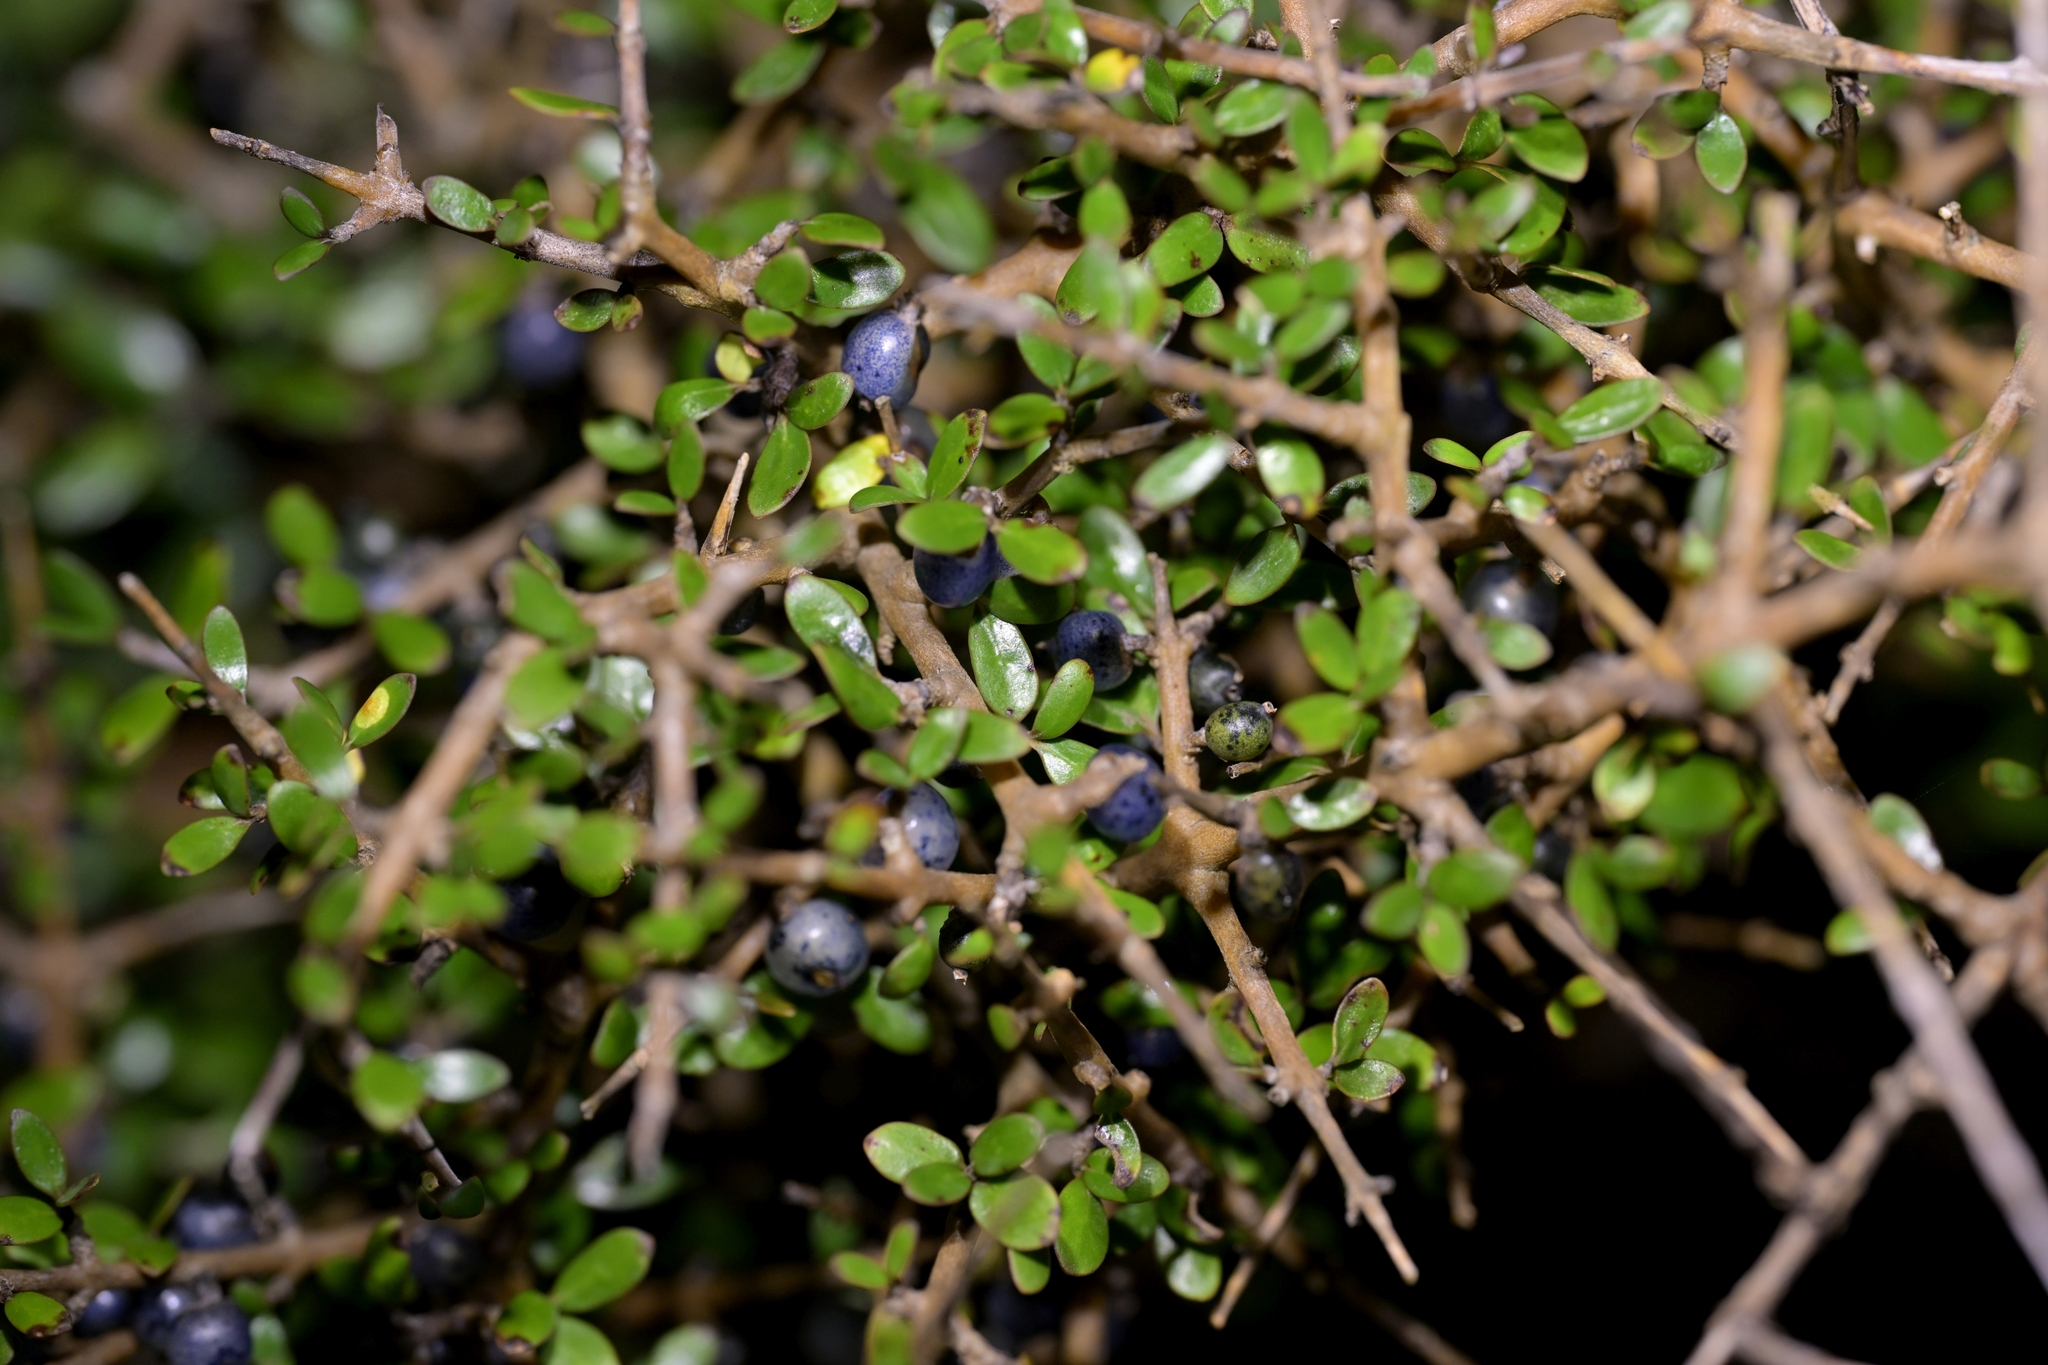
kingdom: Plantae
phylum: Tracheophyta
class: Magnoliopsida
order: Gentianales
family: Rubiaceae
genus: Coprosma
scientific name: Coprosma propinqua
